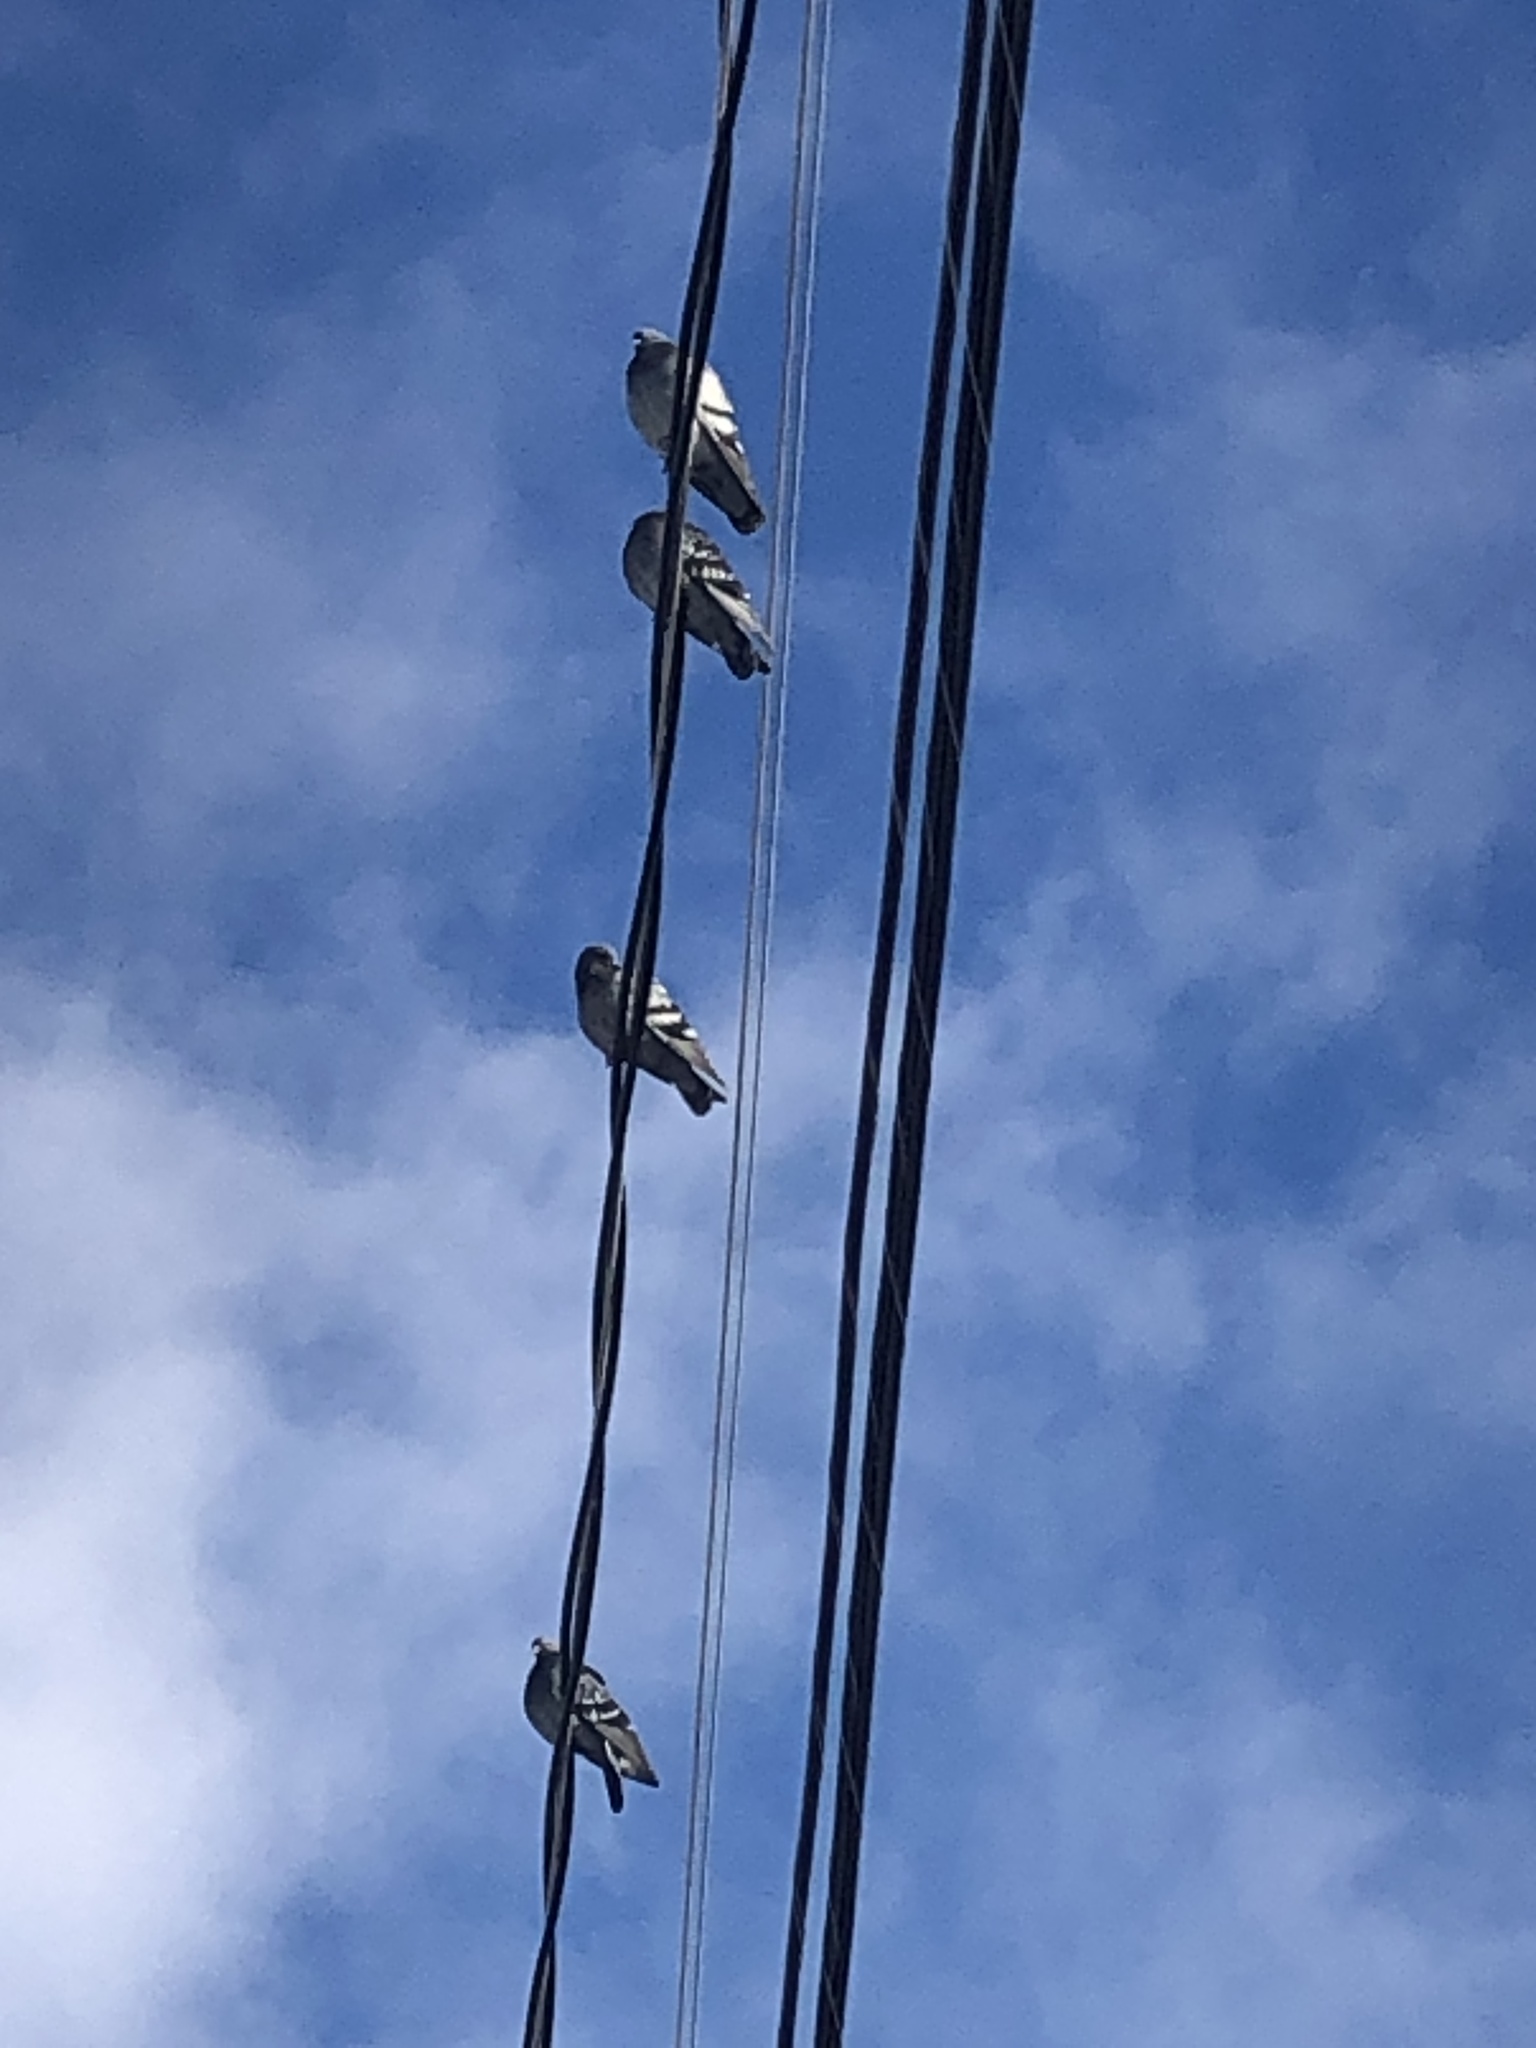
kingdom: Animalia
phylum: Chordata
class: Aves
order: Columbiformes
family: Columbidae
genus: Columba
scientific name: Columba livia
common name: Rock pigeon
